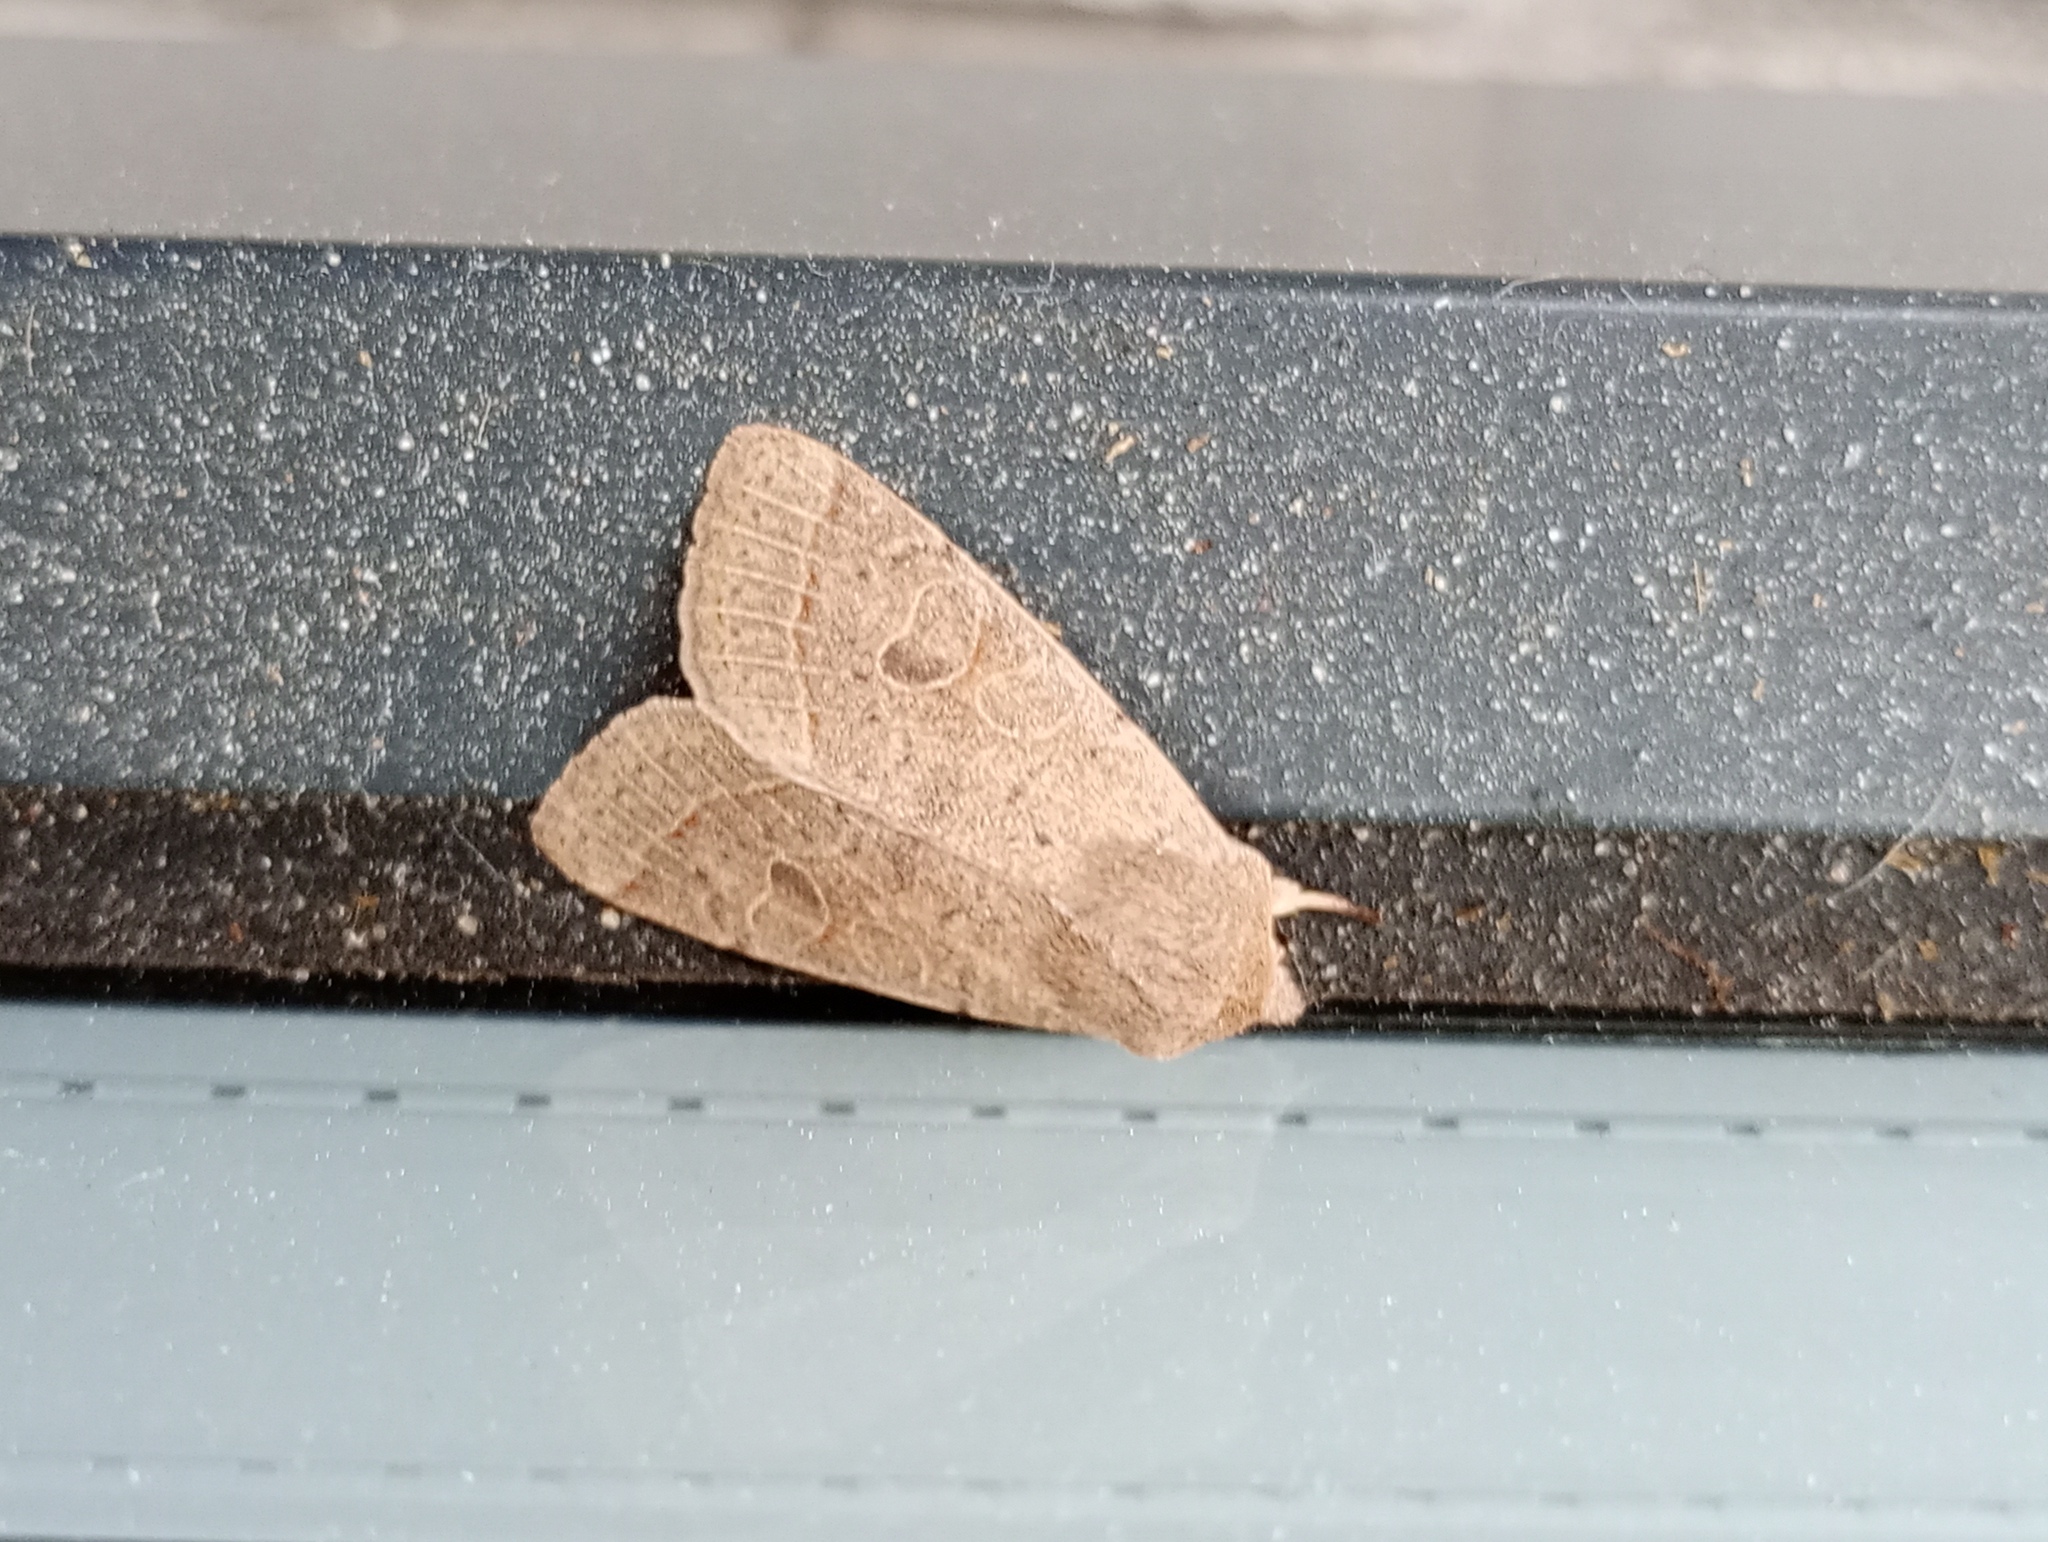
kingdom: Animalia
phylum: Arthropoda
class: Insecta
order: Lepidoptera
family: Noctuidae
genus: Orthosia
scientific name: Orthosia cerasi
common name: Common quaker
